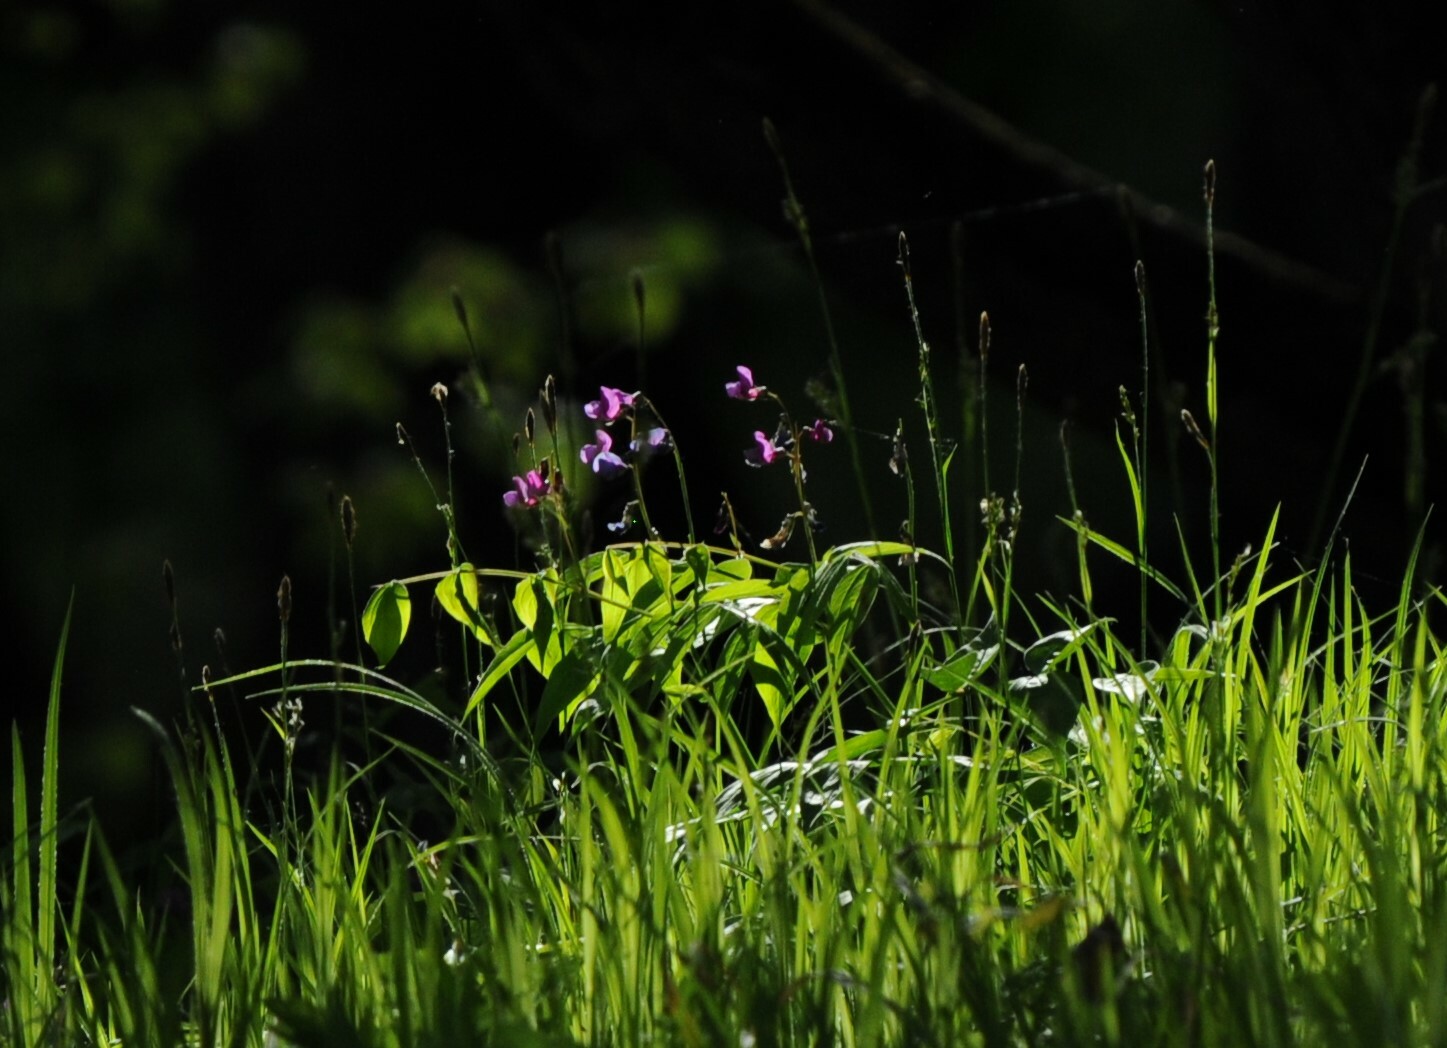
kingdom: Plantae
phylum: Tracheophyta
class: Magnoliopsida
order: Fabales
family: Fabaceae
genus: Lathyrus
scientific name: Lathyrus vernus
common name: Spring pea
